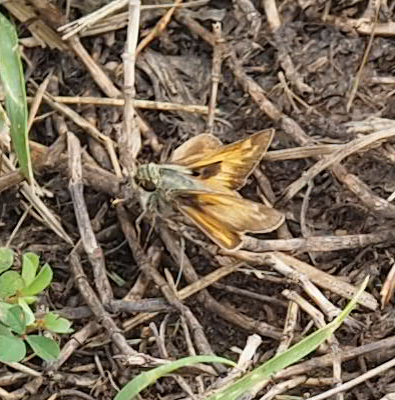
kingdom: Animalia
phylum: Arthropoda
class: Insecta
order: Lepidoptera
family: Hesperiidae
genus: Atalopedes
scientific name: Atalopedes
